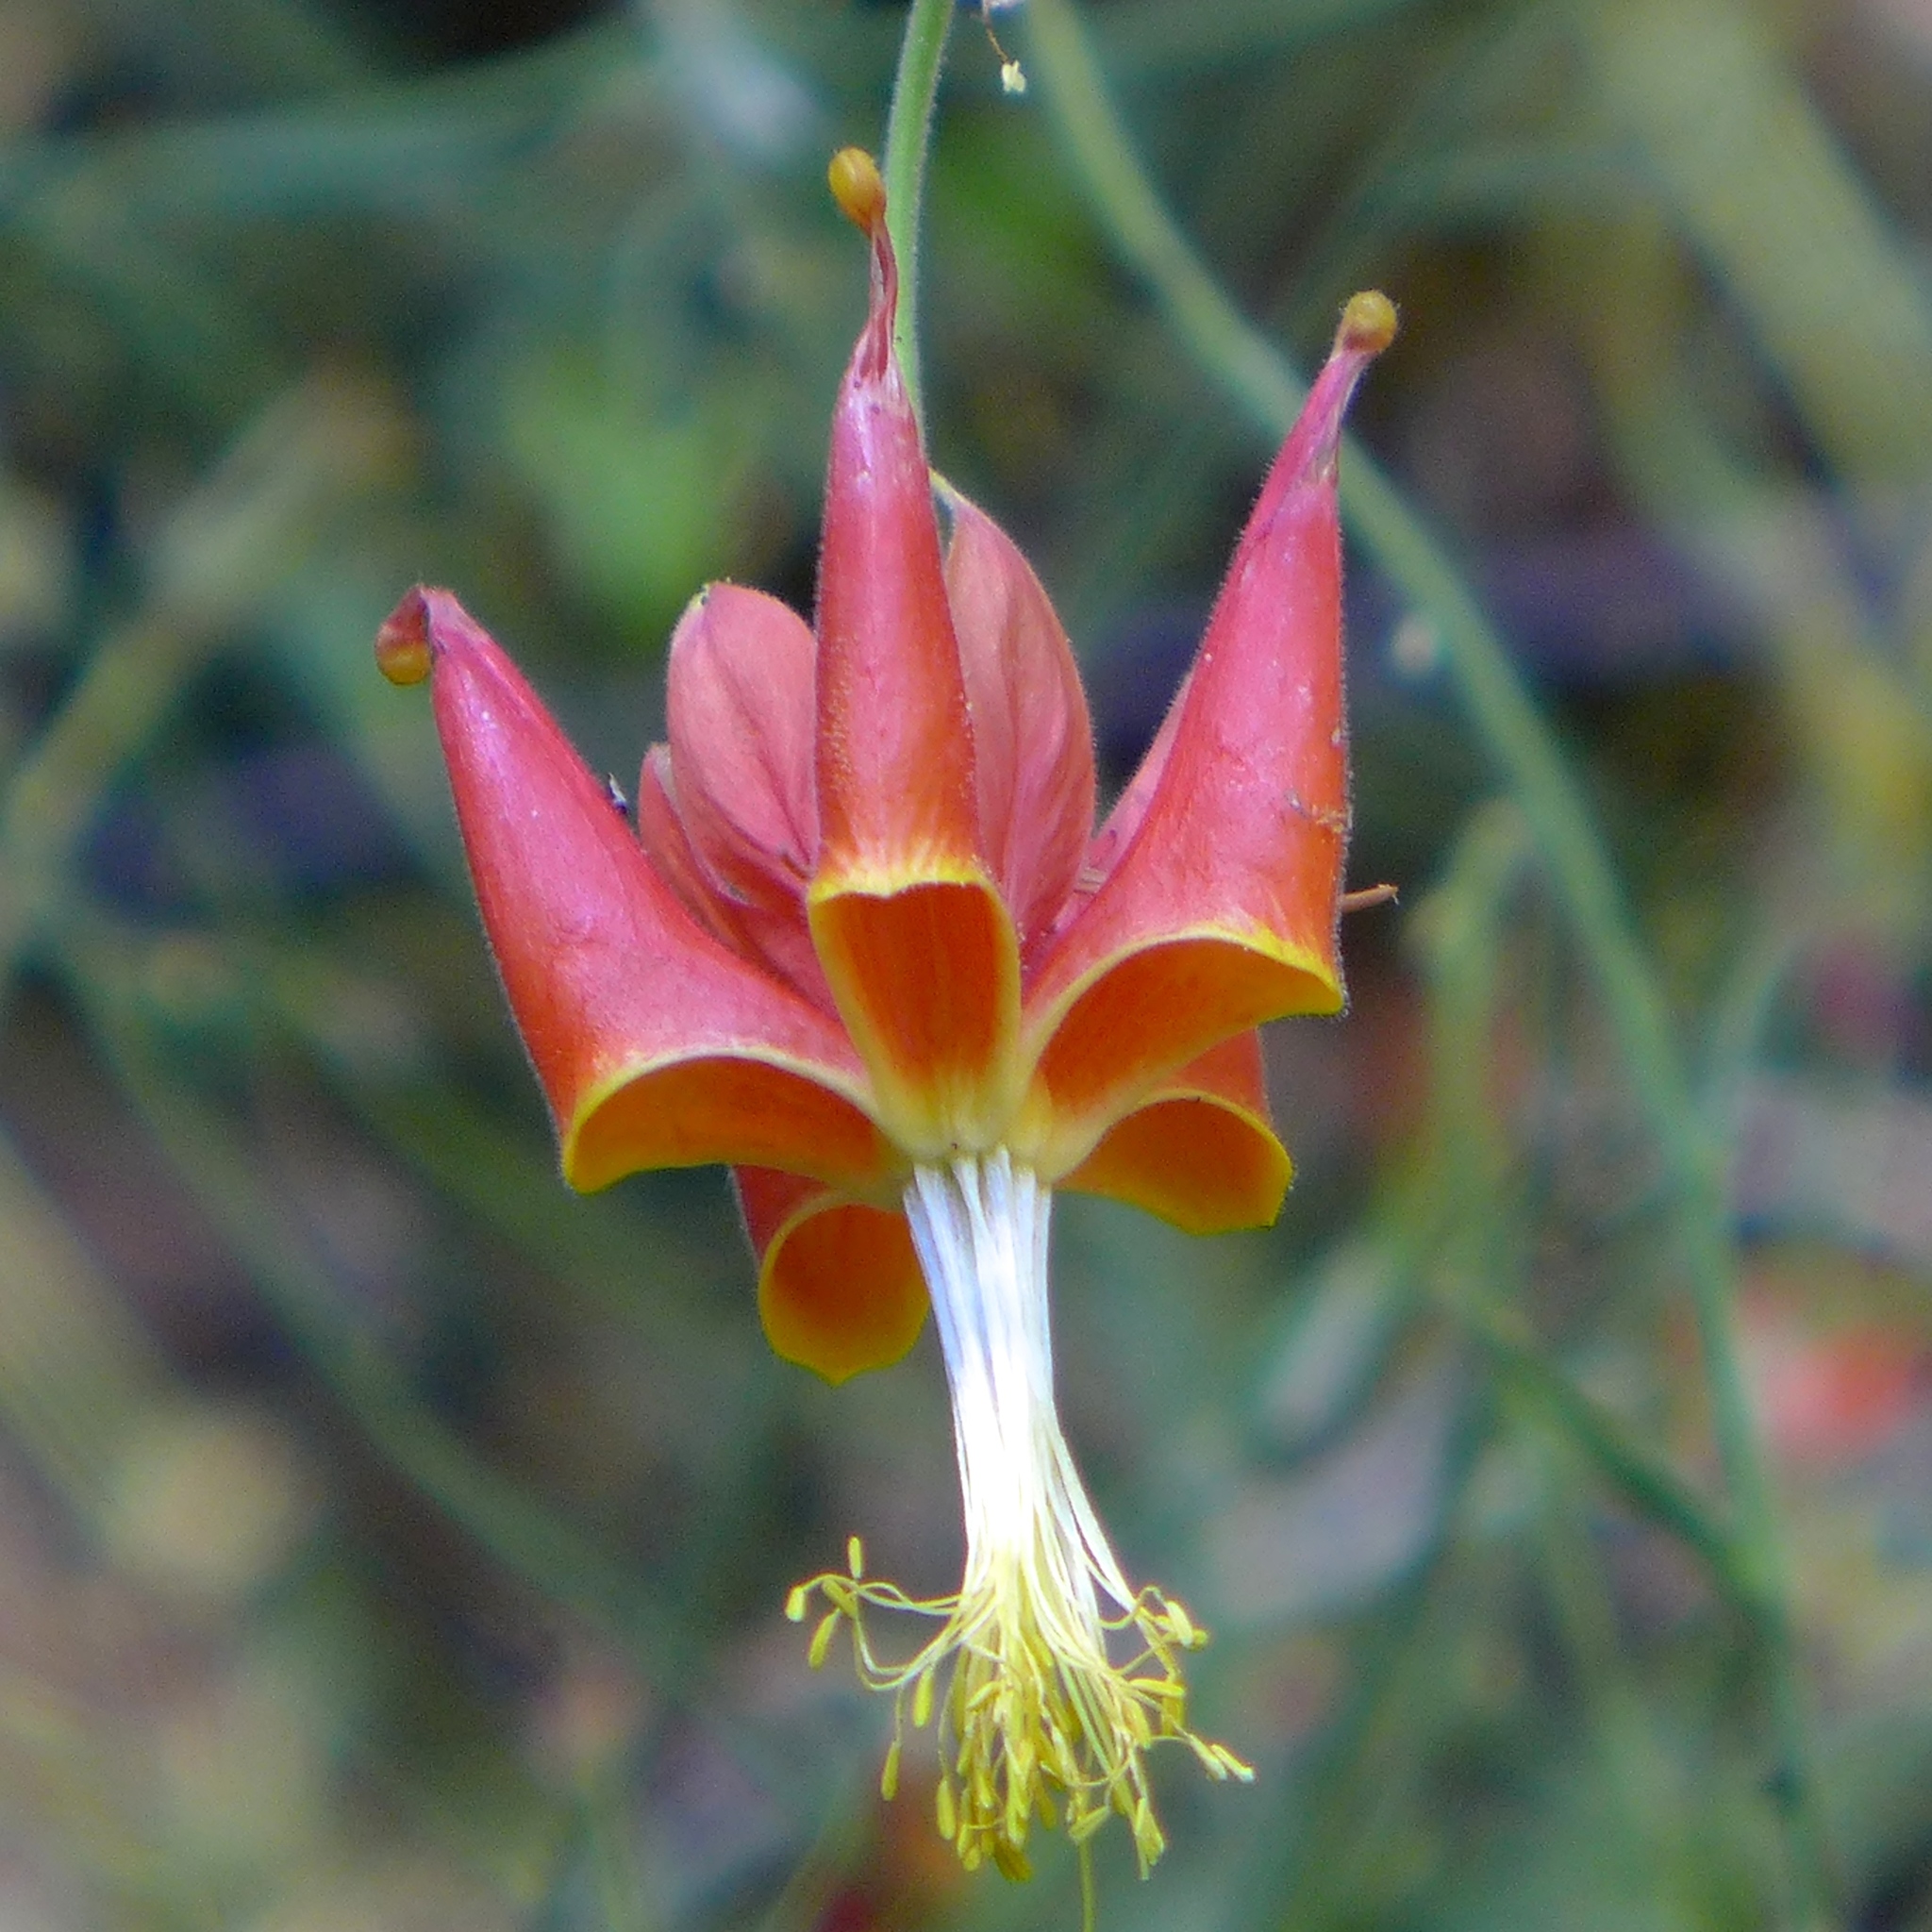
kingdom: Plantae
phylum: Tracheophyta
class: Magnoliopsida
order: Ranunculales
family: Ranunculaceae
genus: Aquilegia
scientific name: Aquilegia eximia
